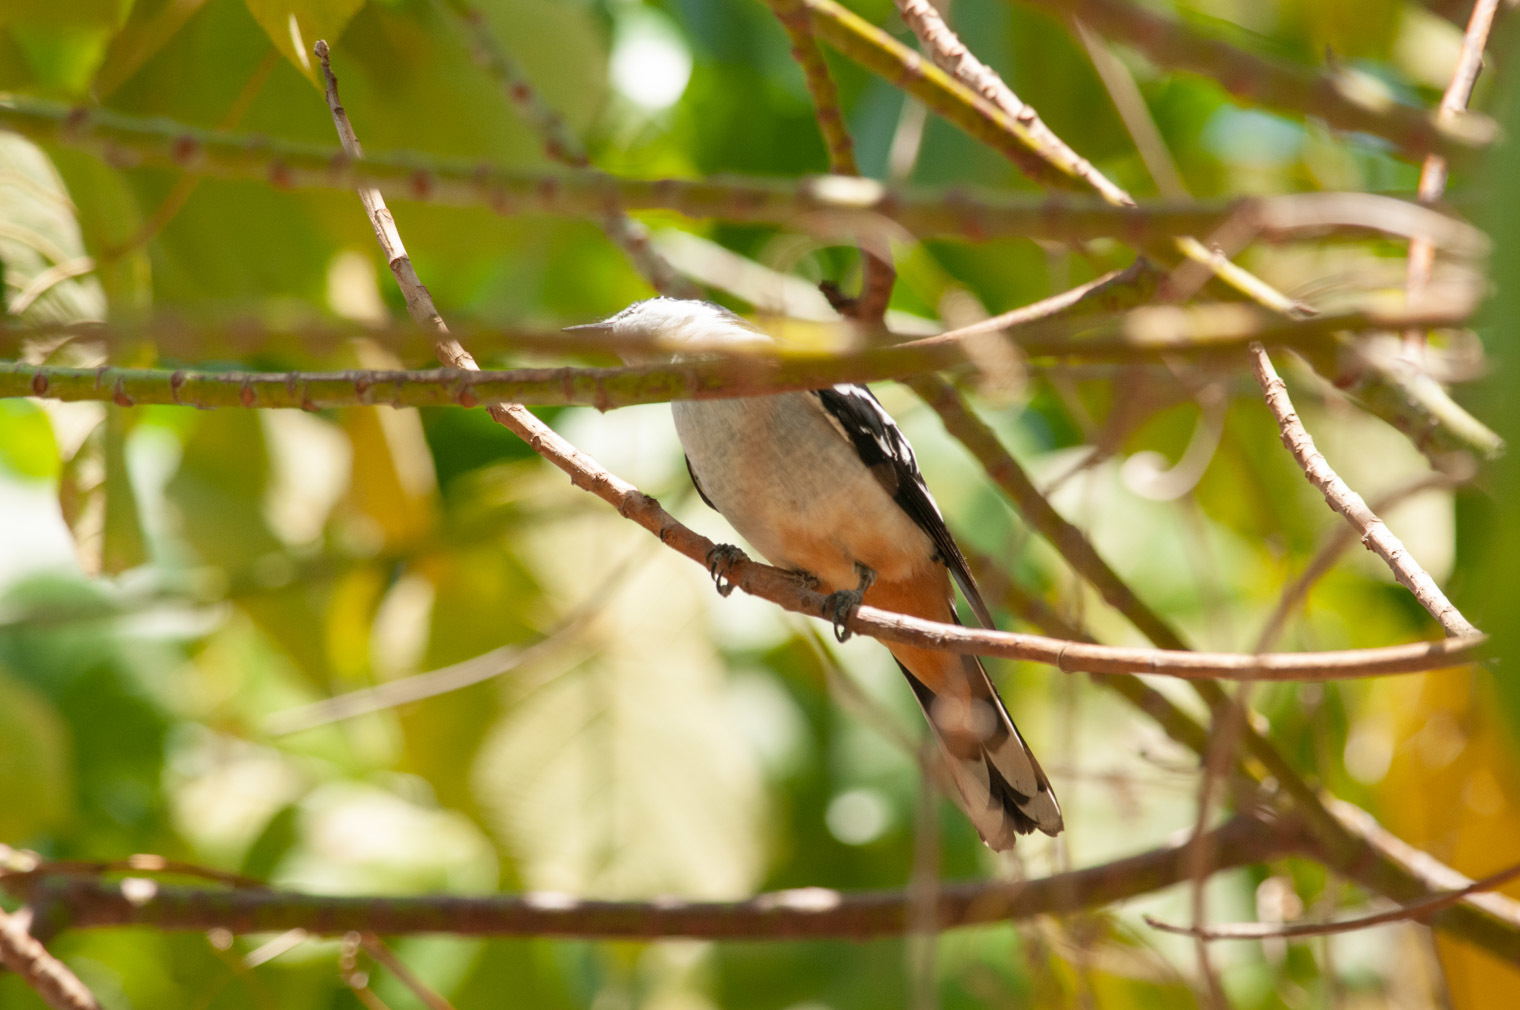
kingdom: Animalia
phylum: Chordata
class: Aves
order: Passeriformes
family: Campephagidae
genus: Lalage
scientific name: Lalage leucomela
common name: Varied triller
